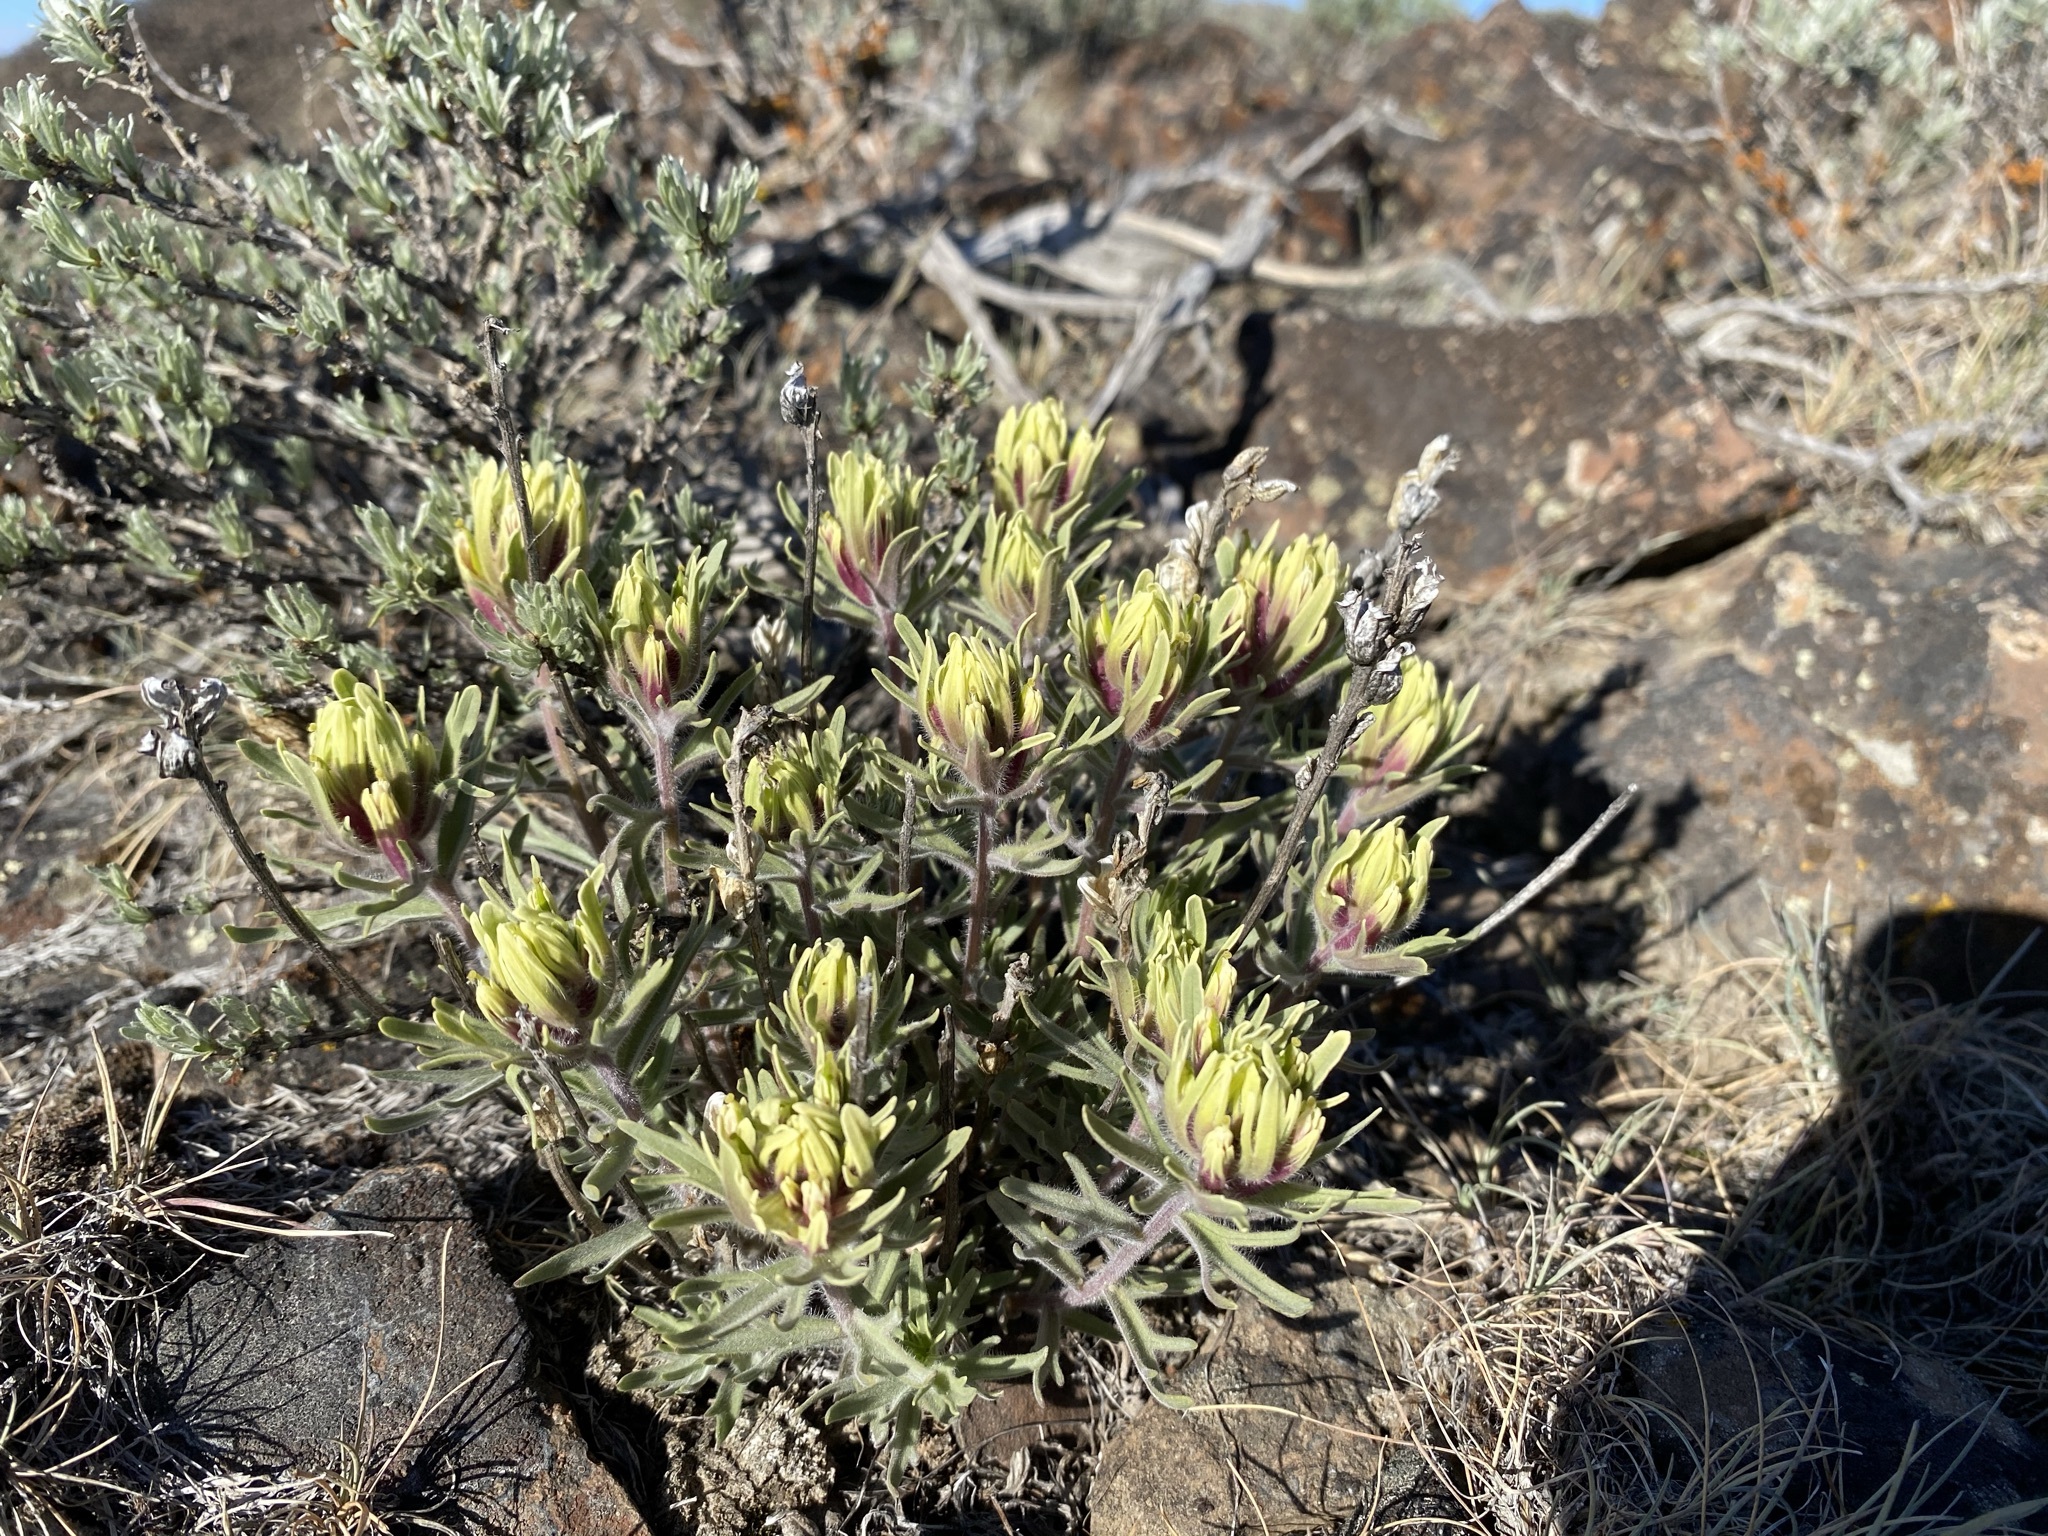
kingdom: Plantae
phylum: Tracheophyta
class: Magnoliopsida
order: Lamiales
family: Orobanchaceae
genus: Castilleja
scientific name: Castilleja thompsonii
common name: Thompson's paintbrush
